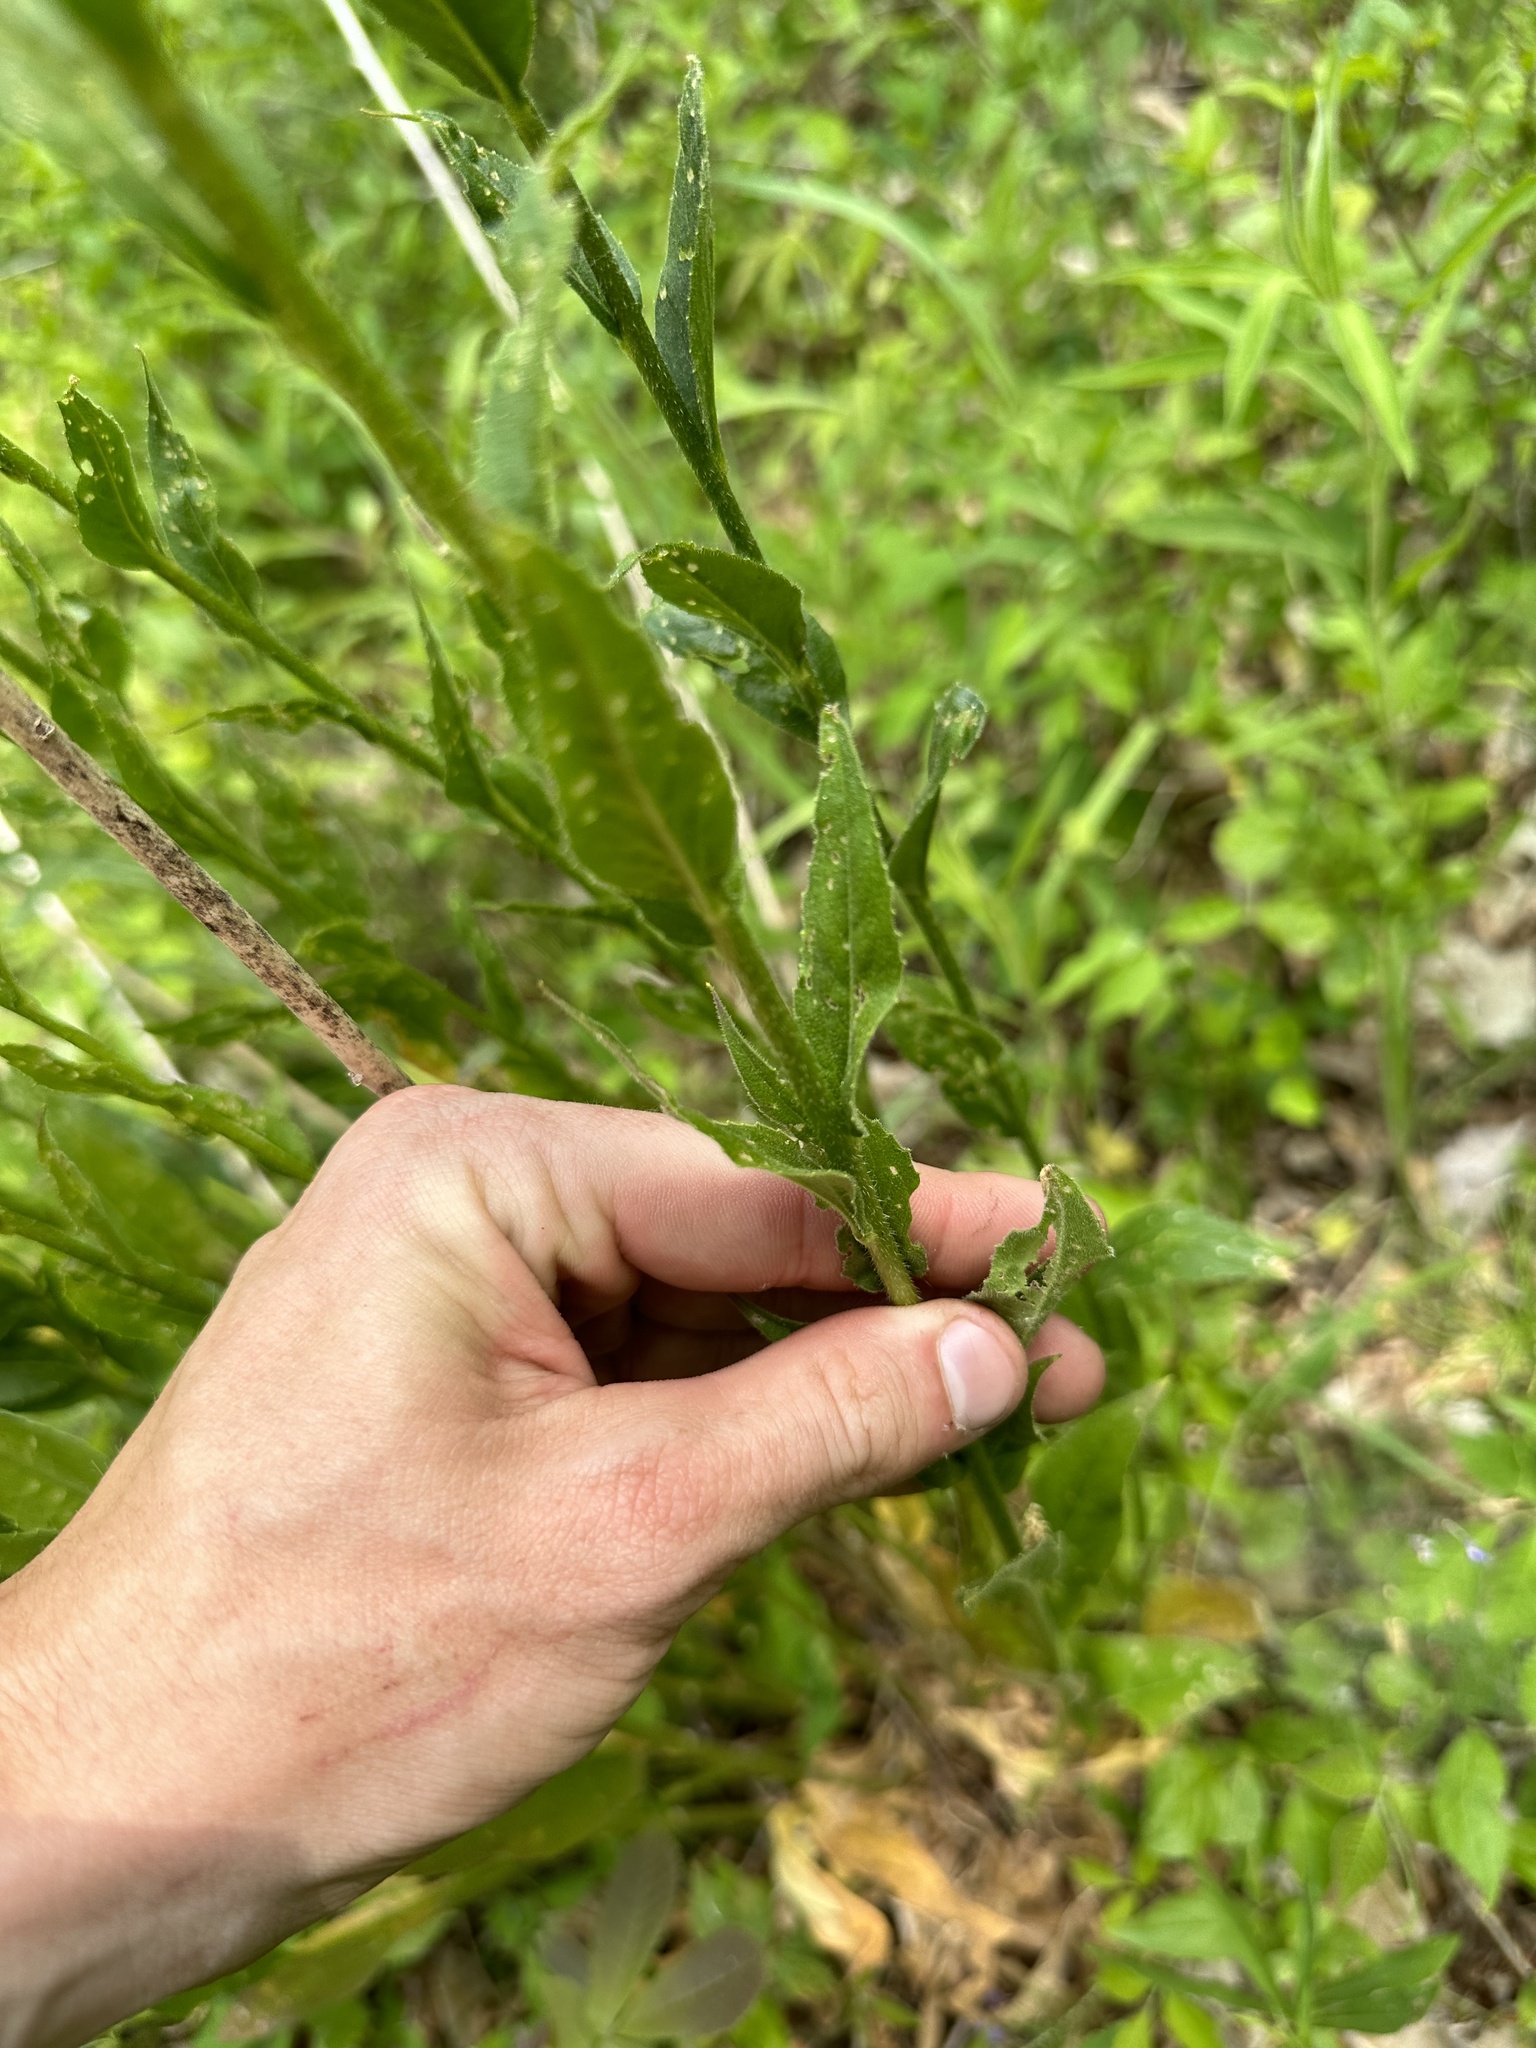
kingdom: Plantae
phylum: Tracheophyta
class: Magnoliopsida
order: Brassicales
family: Brassicaceae
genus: Hesperis
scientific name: Hesperis matronalis
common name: Dame's-violet
